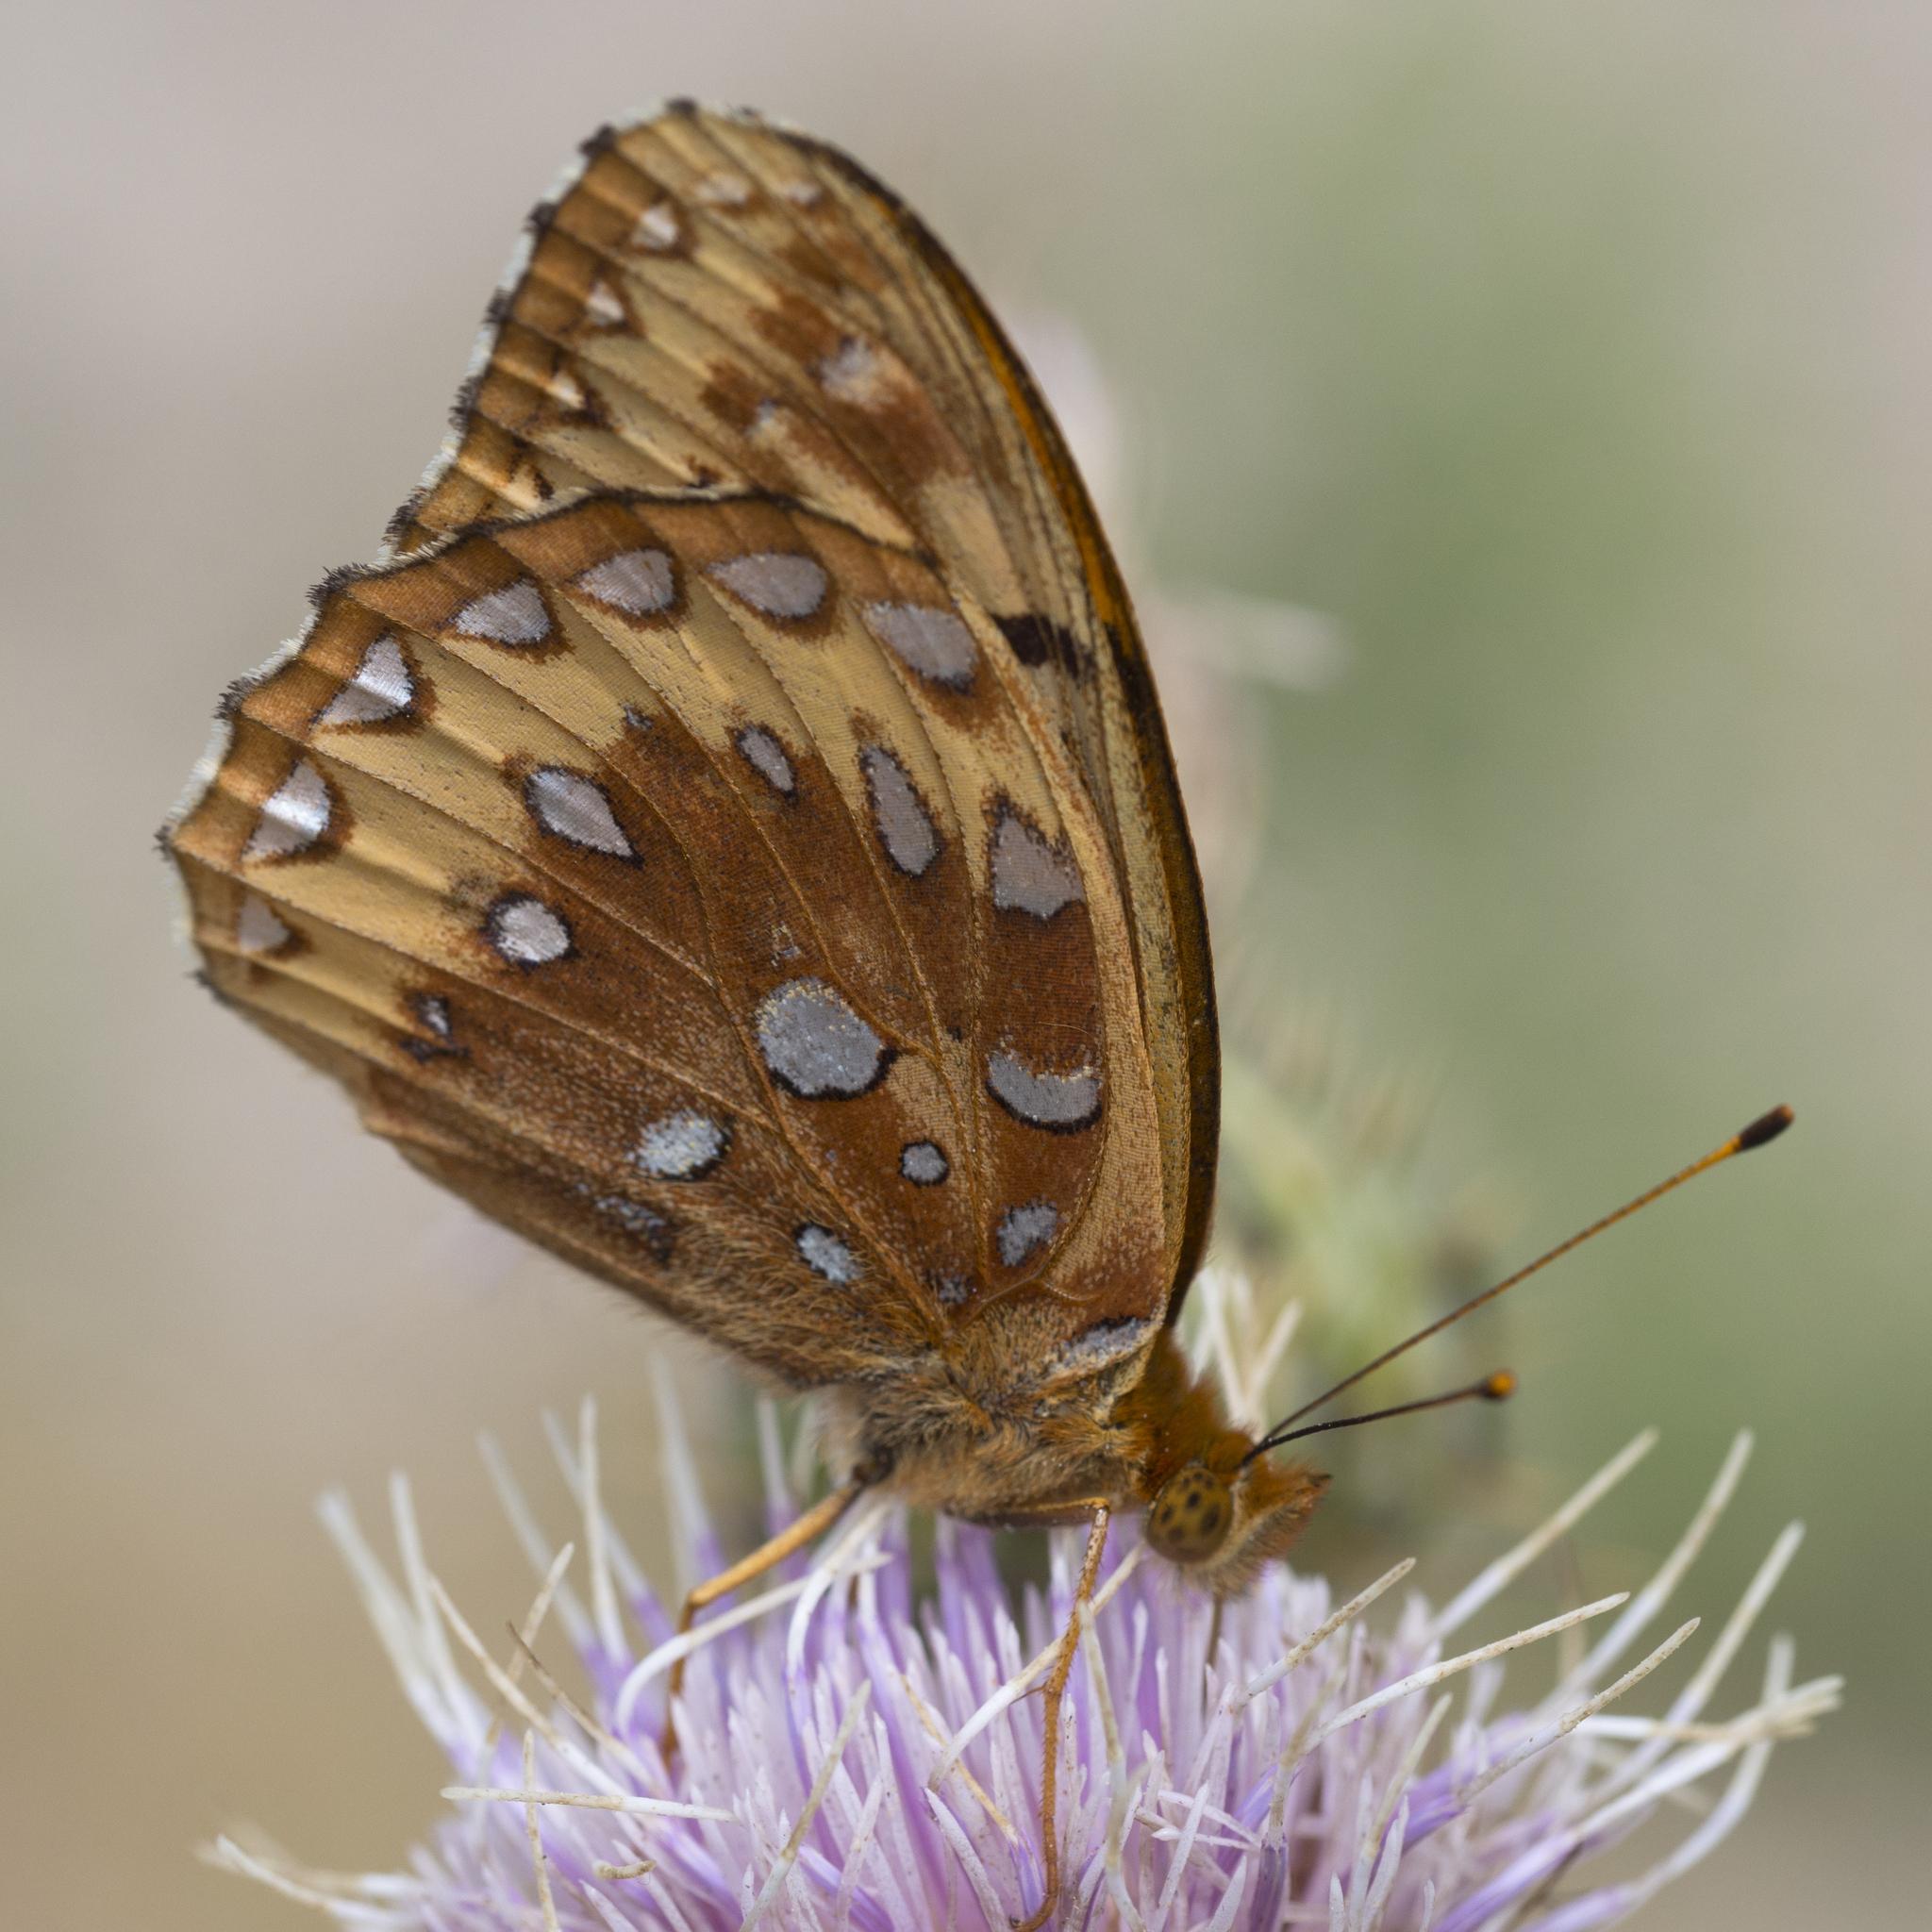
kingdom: Animalia
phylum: Arthropoda
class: Insecta
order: Lepidoptera
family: Nymphalidae
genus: Speyeria
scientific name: Speyeria cybele
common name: Great spangled fritillary
